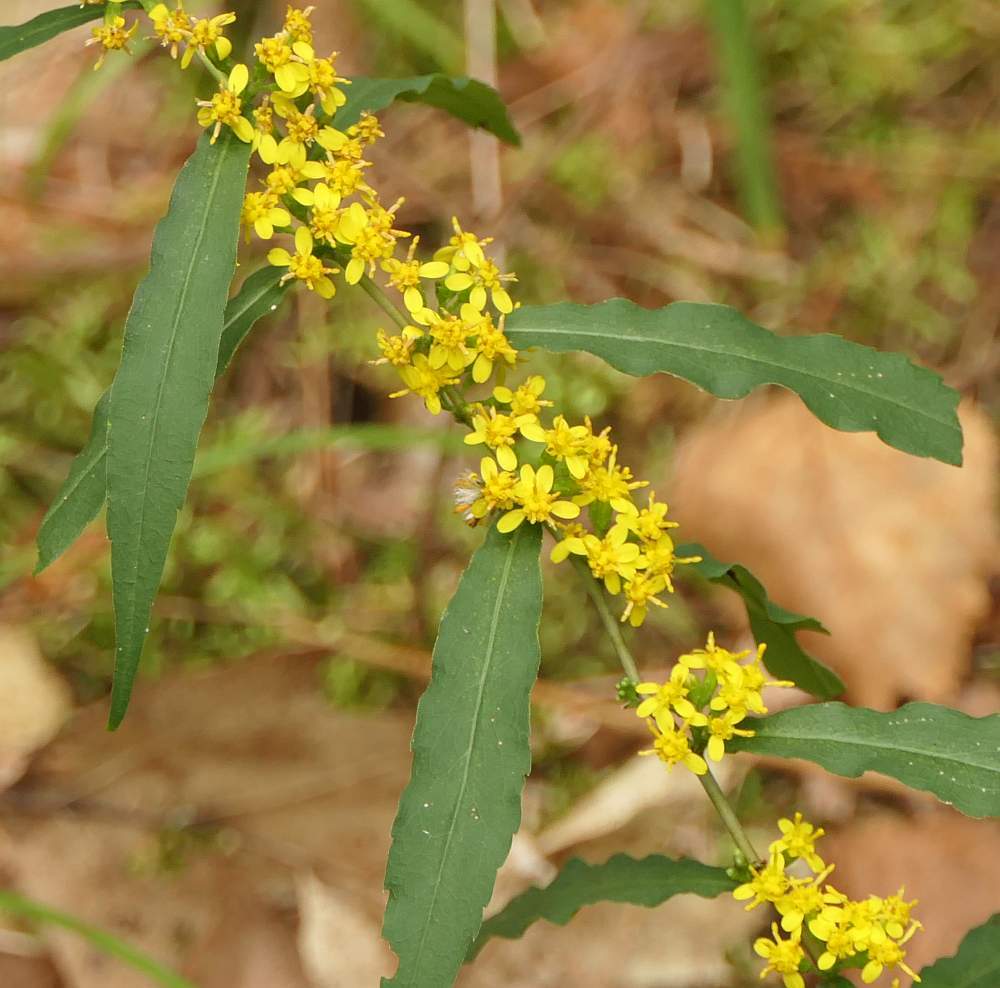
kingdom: Plantae
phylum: Tracheophyta
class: Magnoliopsida
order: Asterales
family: Asteraceae
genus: Solidago
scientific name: Solidago caesia
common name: Woodland goldenrod
